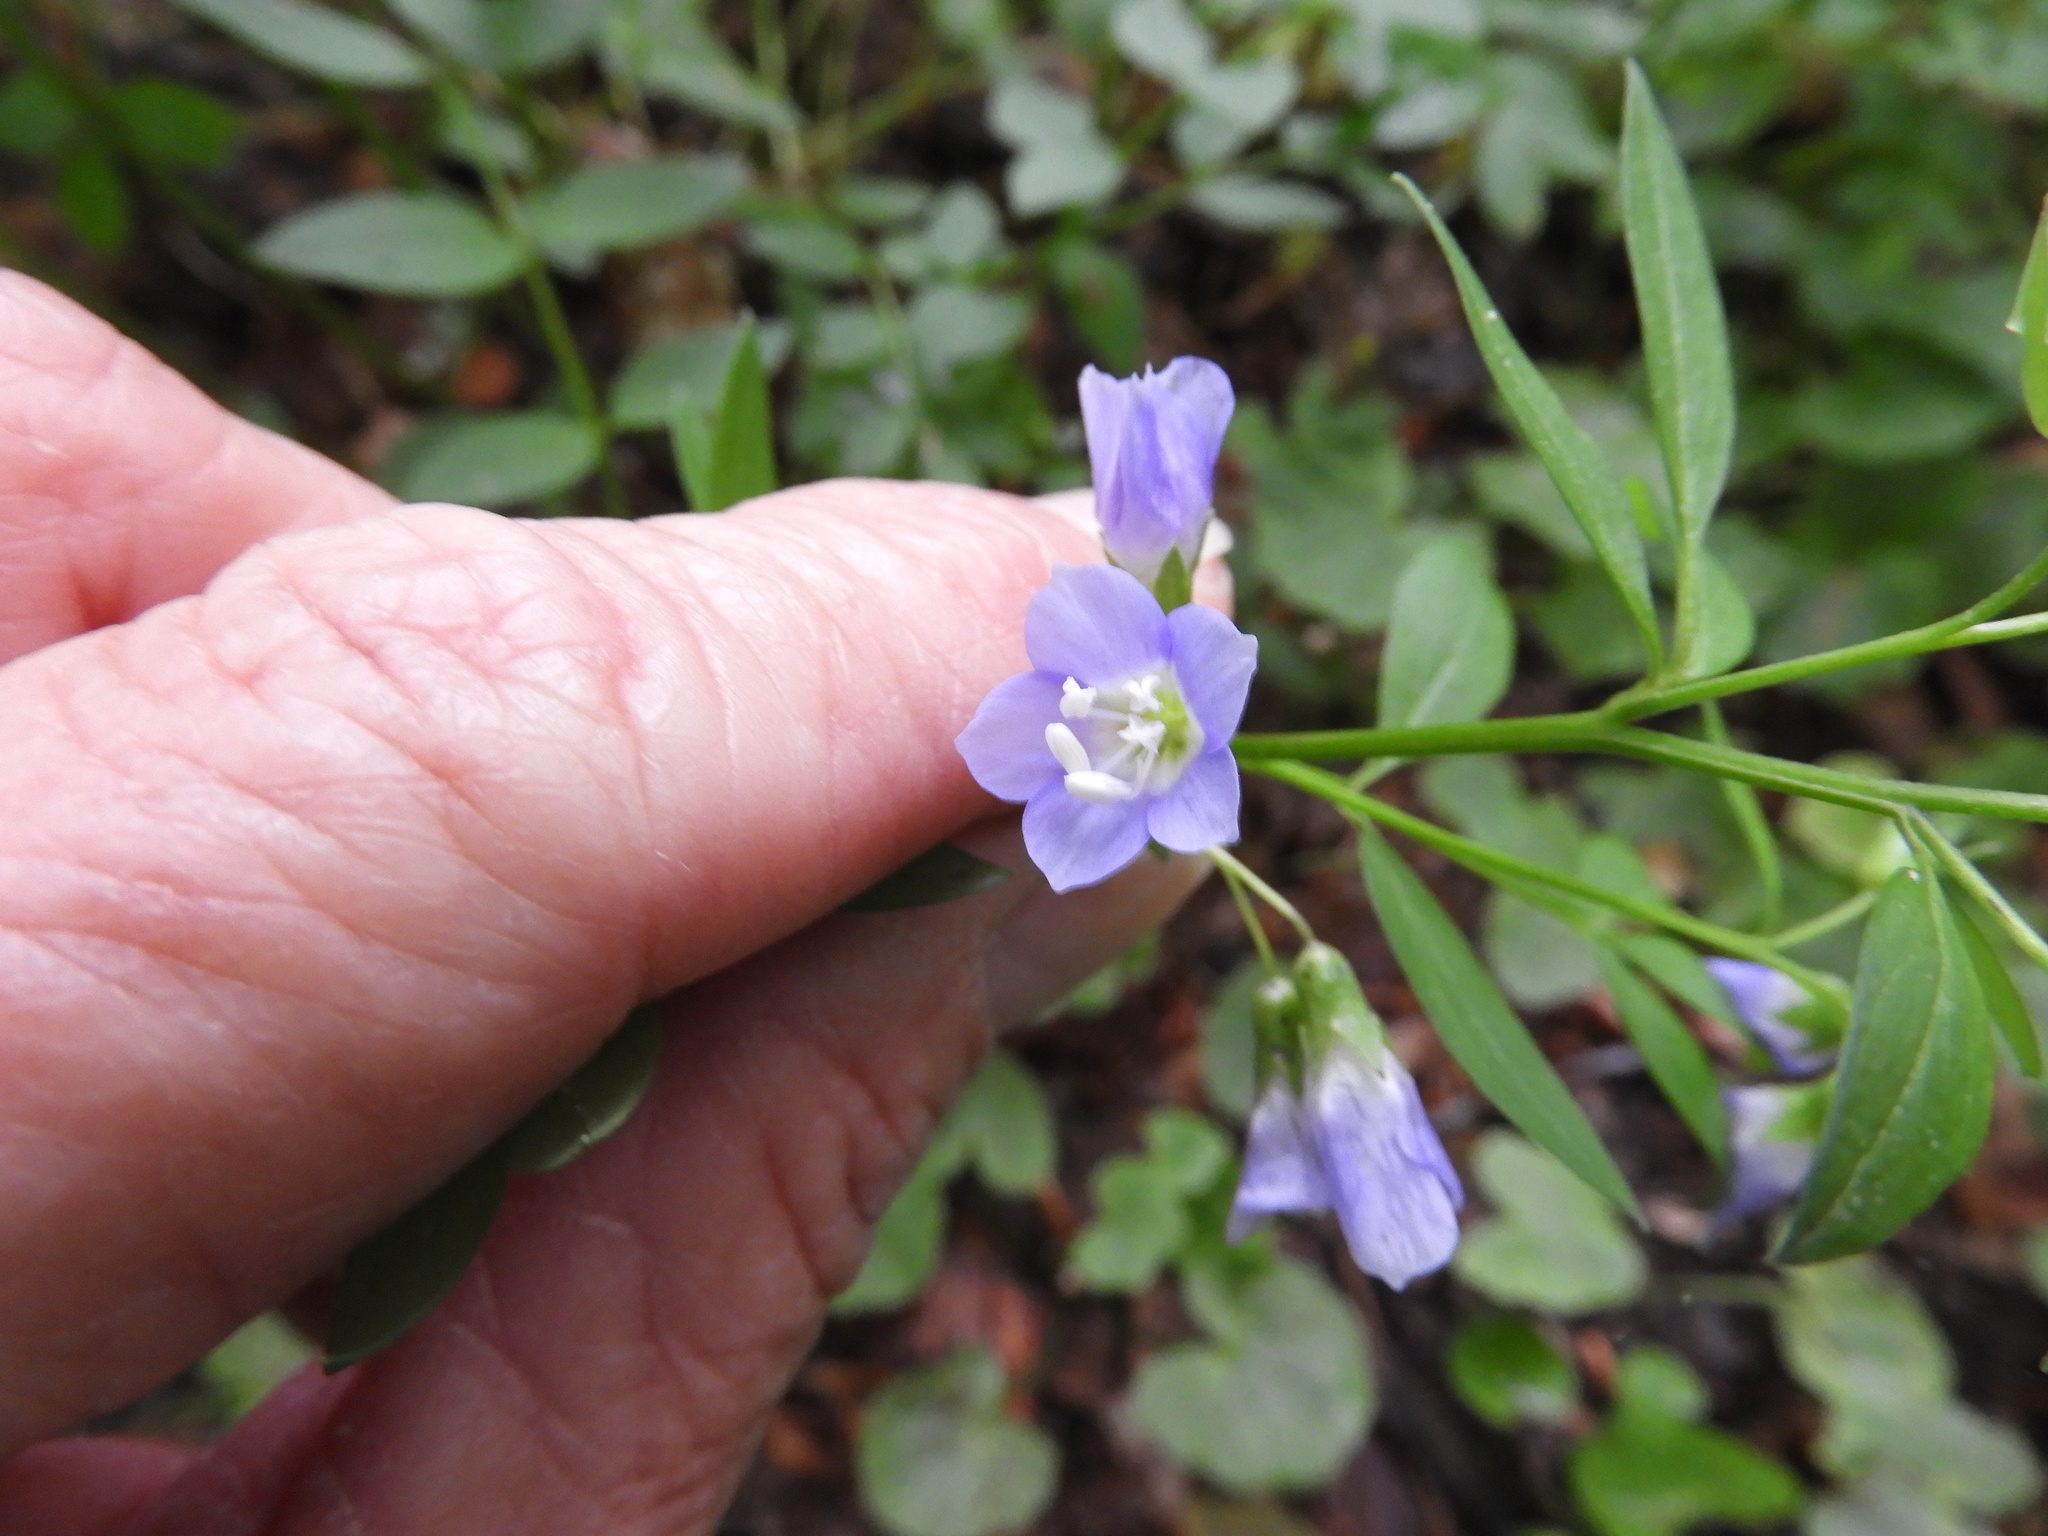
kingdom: Plantae
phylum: Tracheophyta
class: Magnoliopsida
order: Ericales
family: Polemoniaceae
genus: Polemonium
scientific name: Polemonium reptans
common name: Creeping jacob's-ladder
